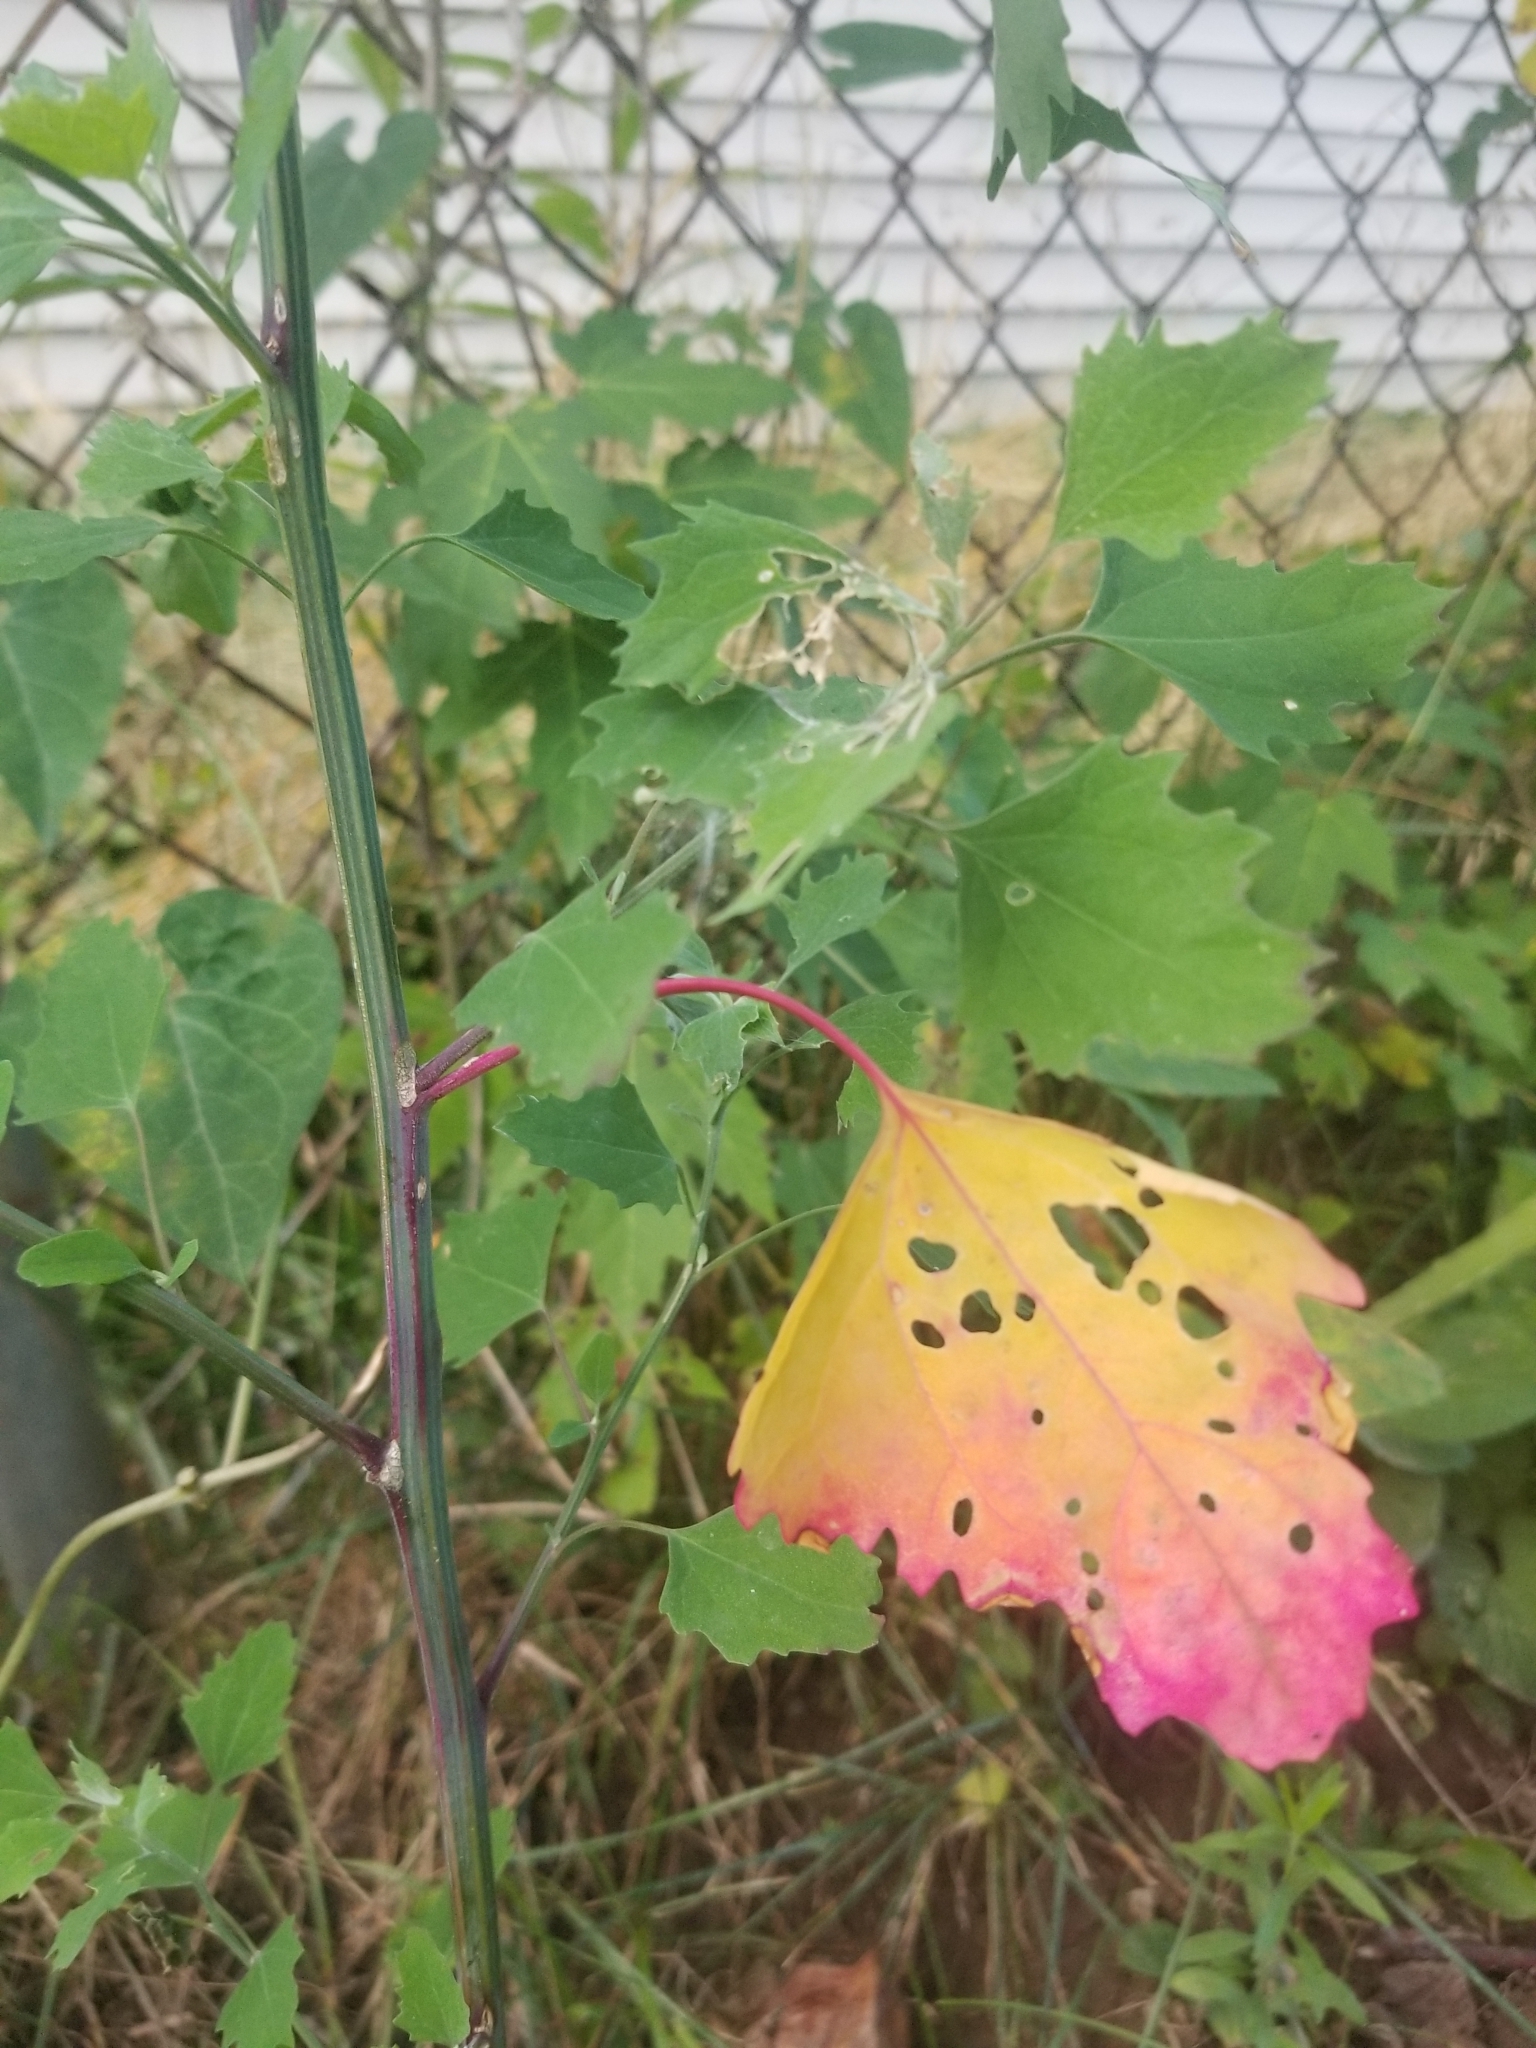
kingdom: Plantae
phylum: Tracheophyta
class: Magnoliopsida
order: Caryophyllales
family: Amaranthaceae
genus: Chenopodium
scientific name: Chenopodium album
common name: Fat-hen
